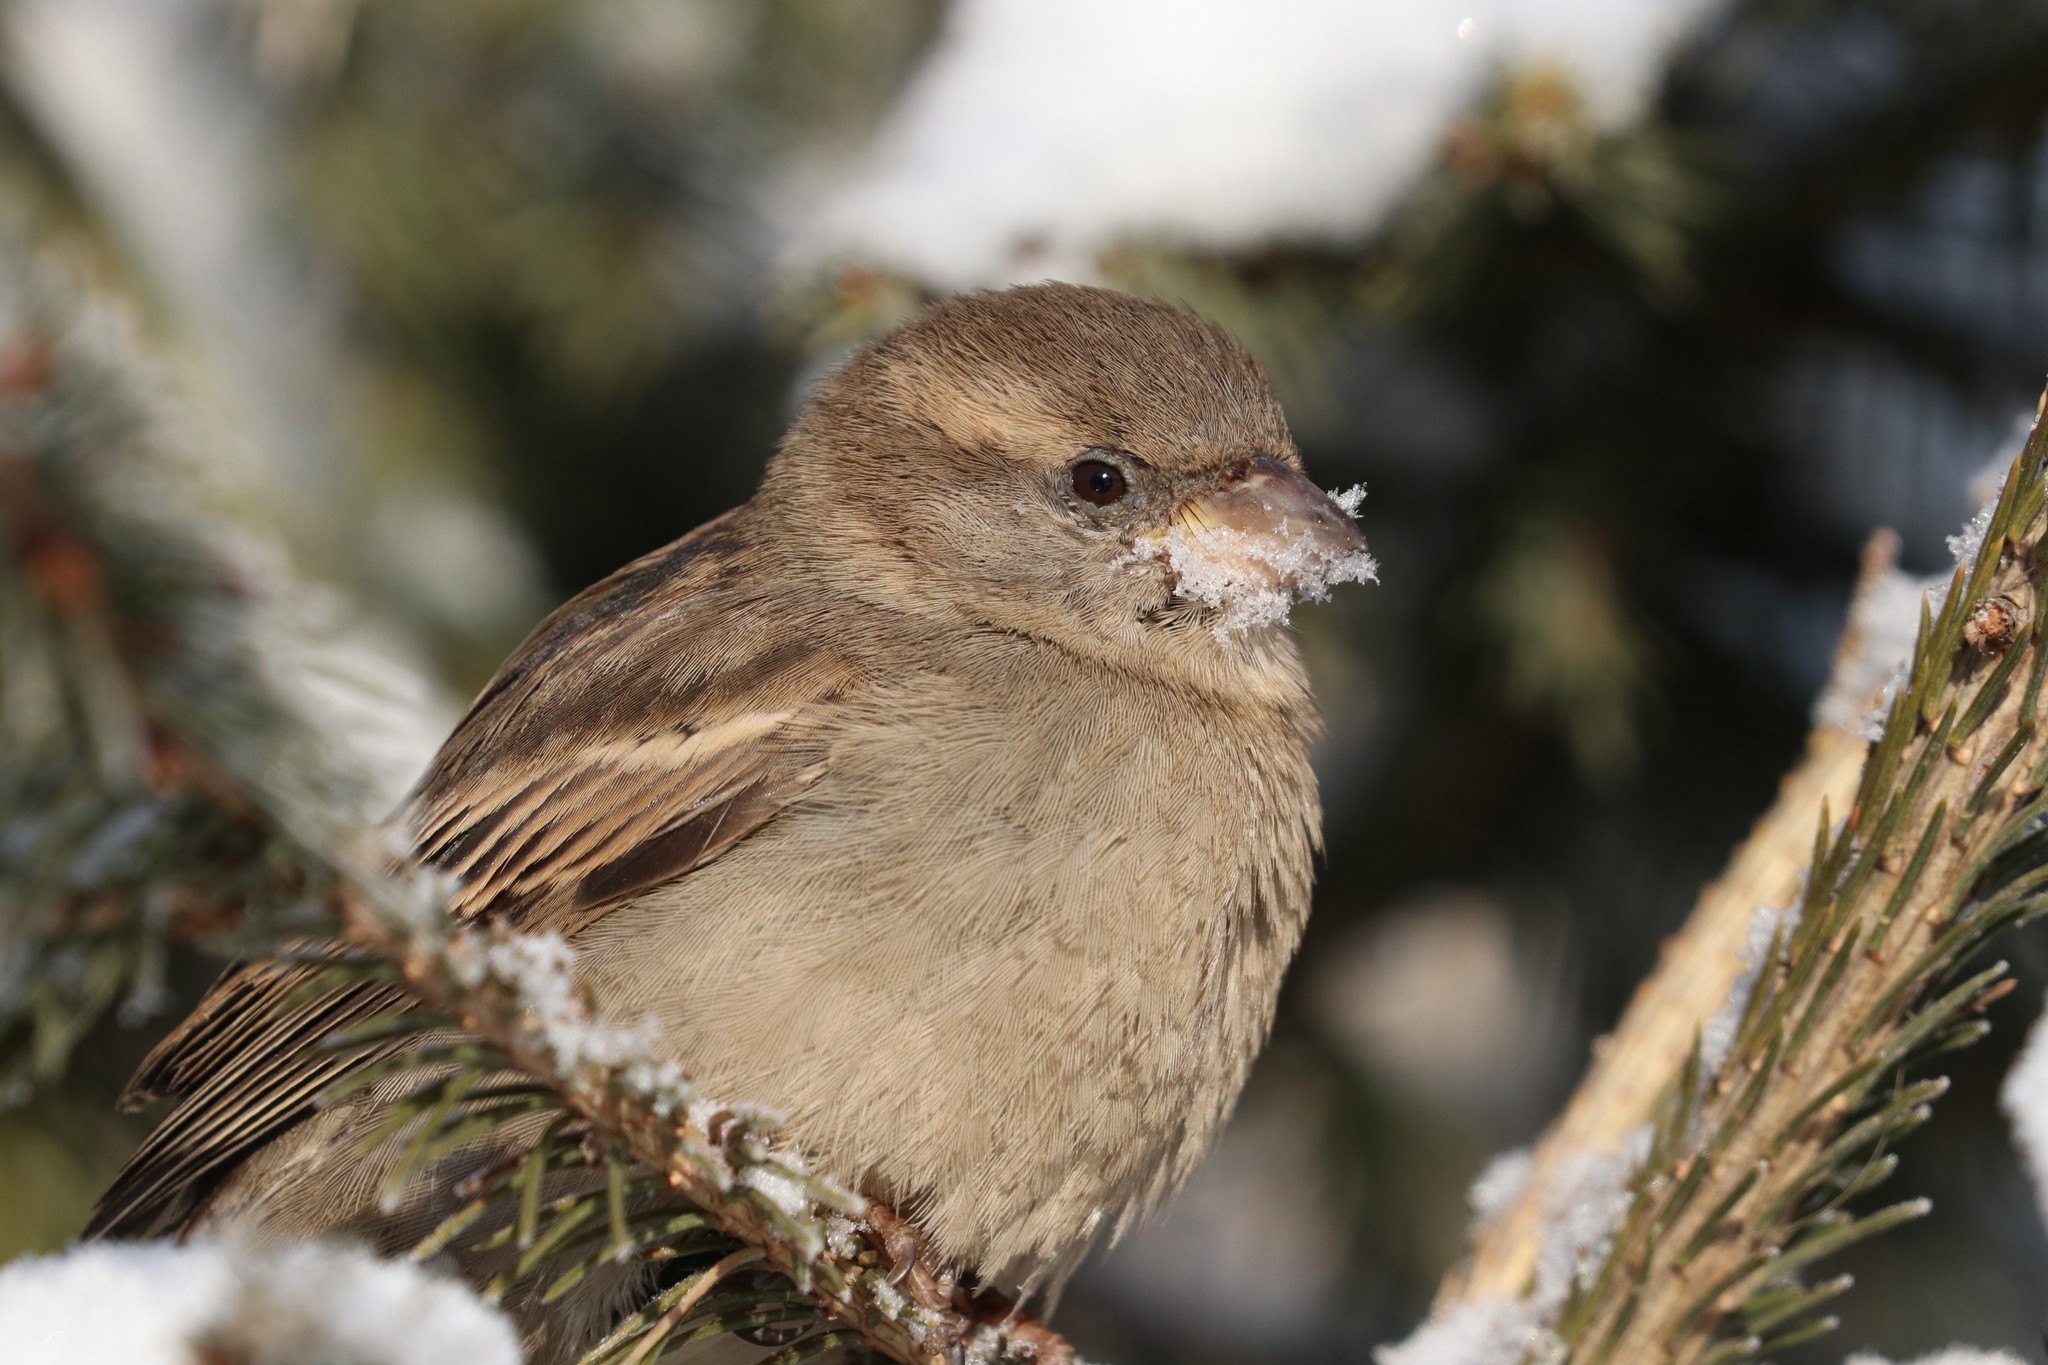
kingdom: Animalia
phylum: Chordata
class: Aves
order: Passeriformes
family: Passeridae
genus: Passer
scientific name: Passer domesticus
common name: House sparrow
